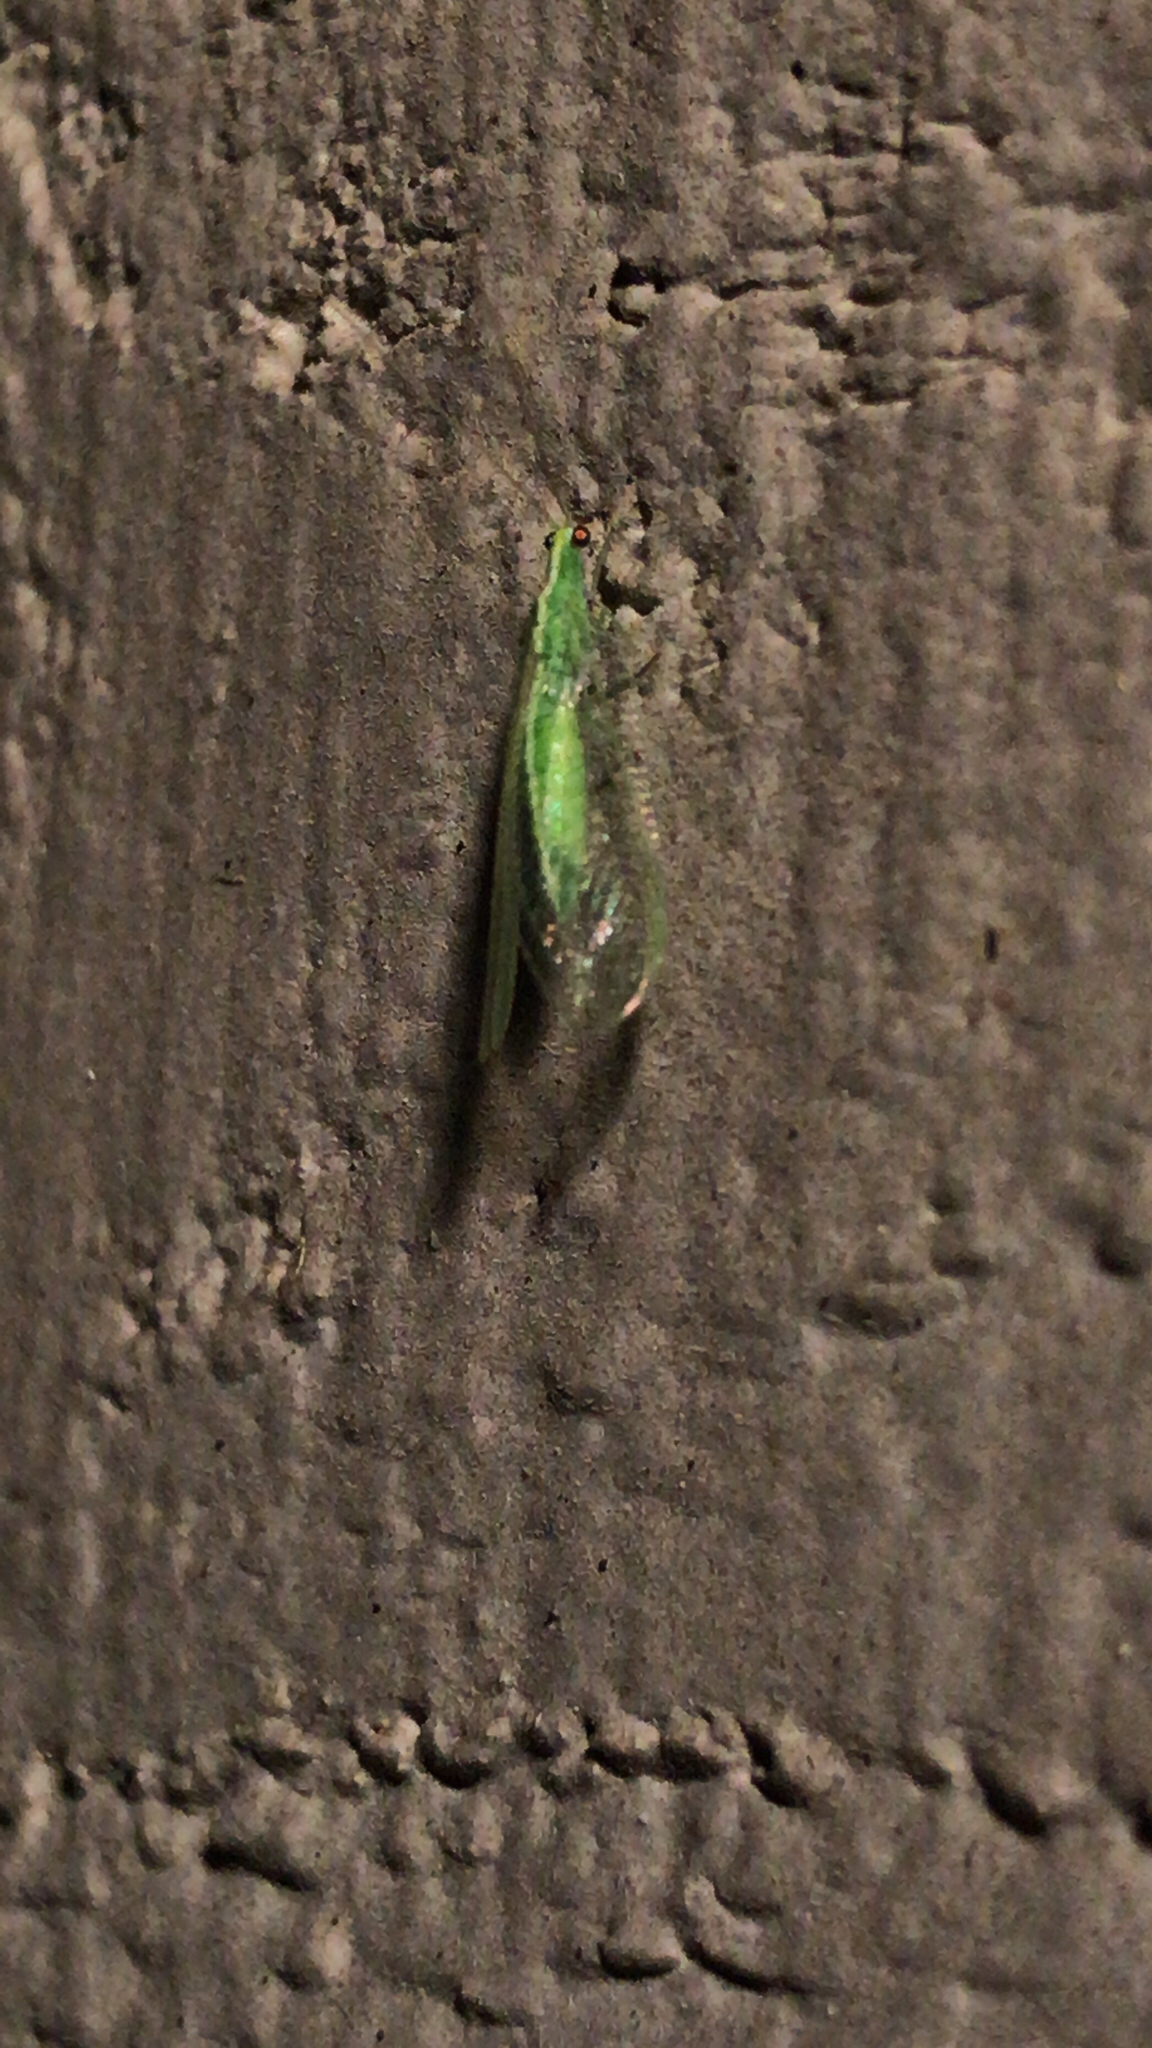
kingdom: Animalia
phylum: Arthropoda
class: Insecta
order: Neuroptera
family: Chrysopidae
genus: Chrysoperla
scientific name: Chrysoperla
